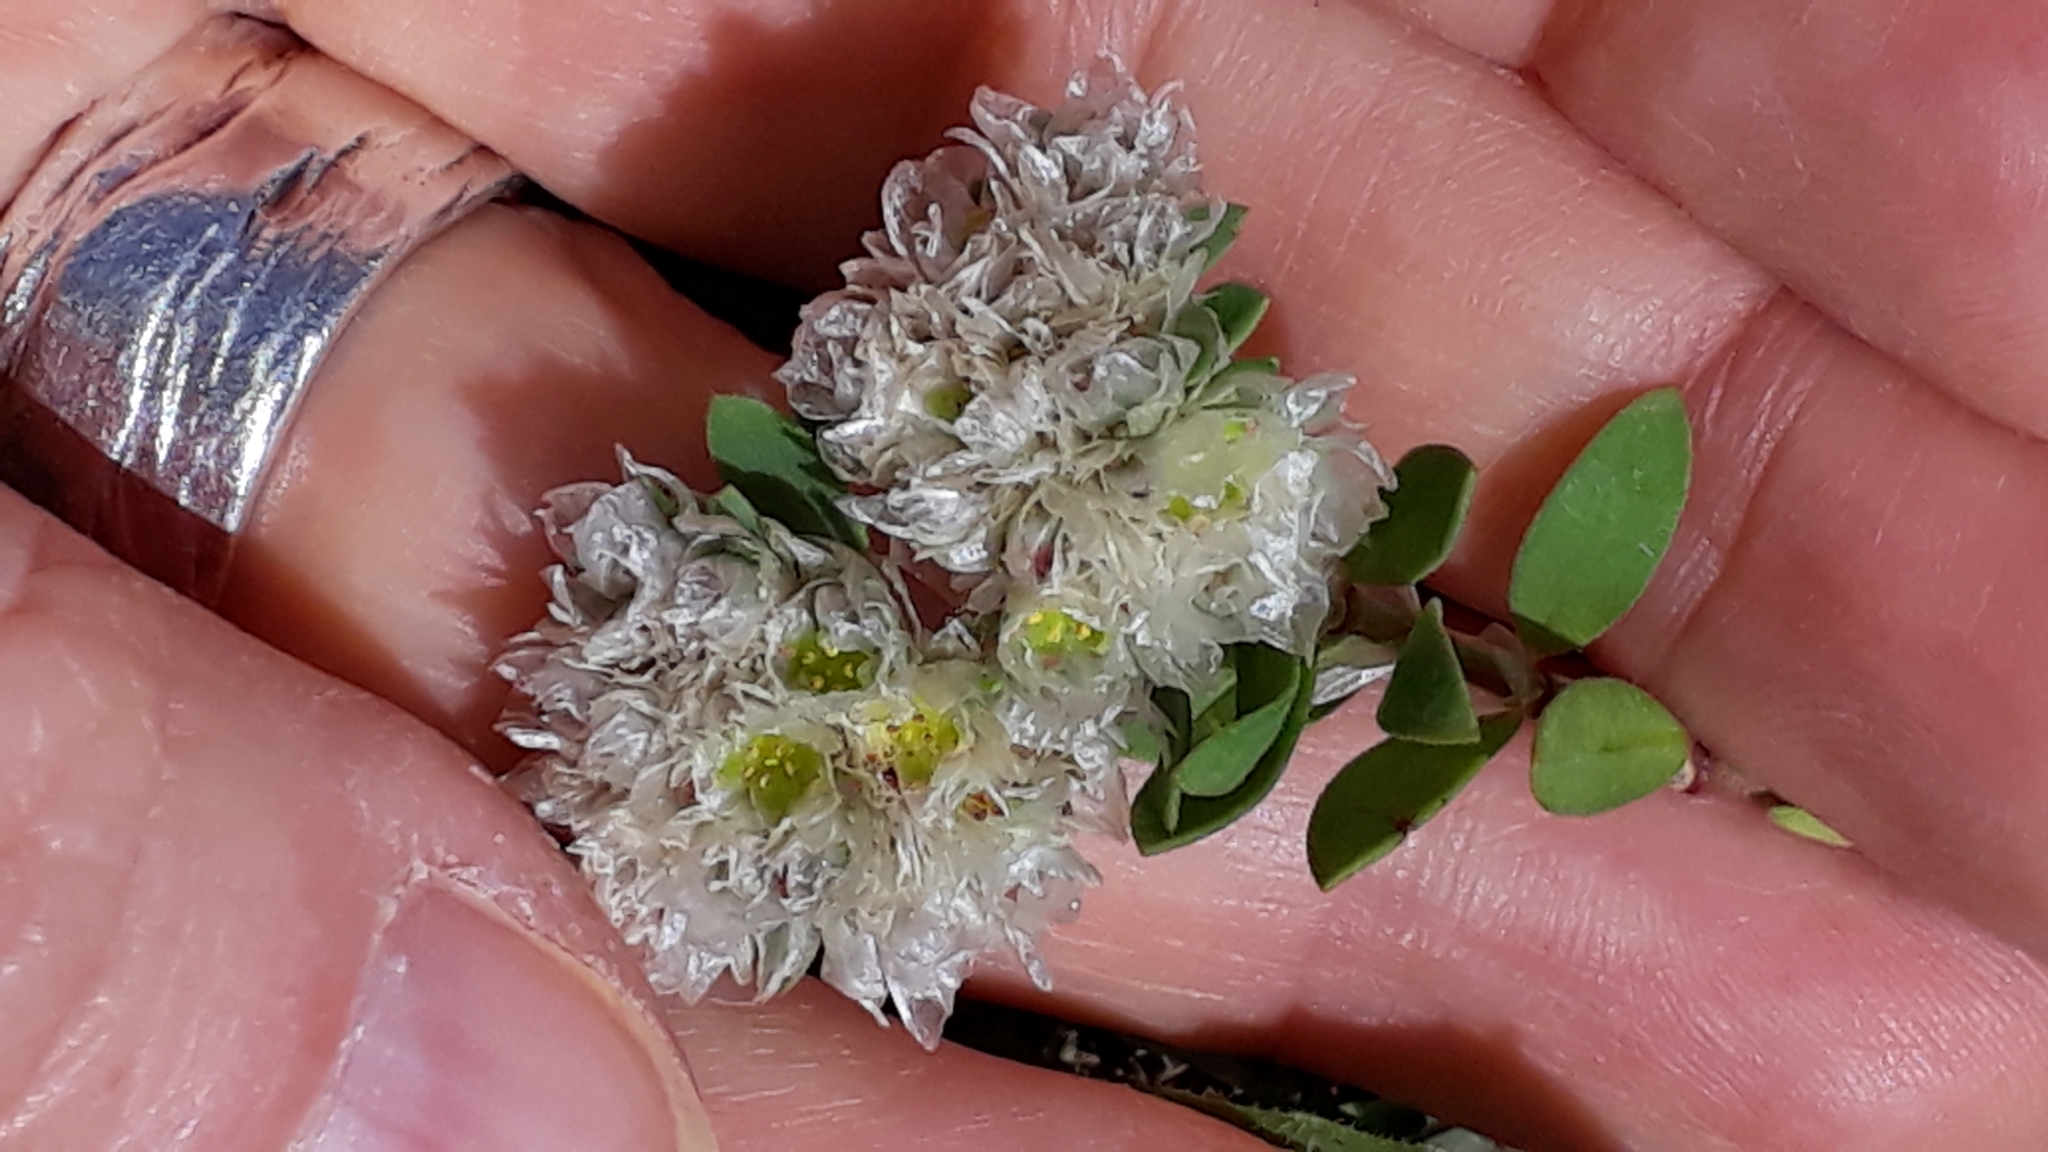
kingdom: Plantae
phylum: Tracheophyta
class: Magnoliopsida
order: Caryophyllales
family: Caryophyllaceae
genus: Paronychia
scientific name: Paronychia argentea
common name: Silver nailroot
